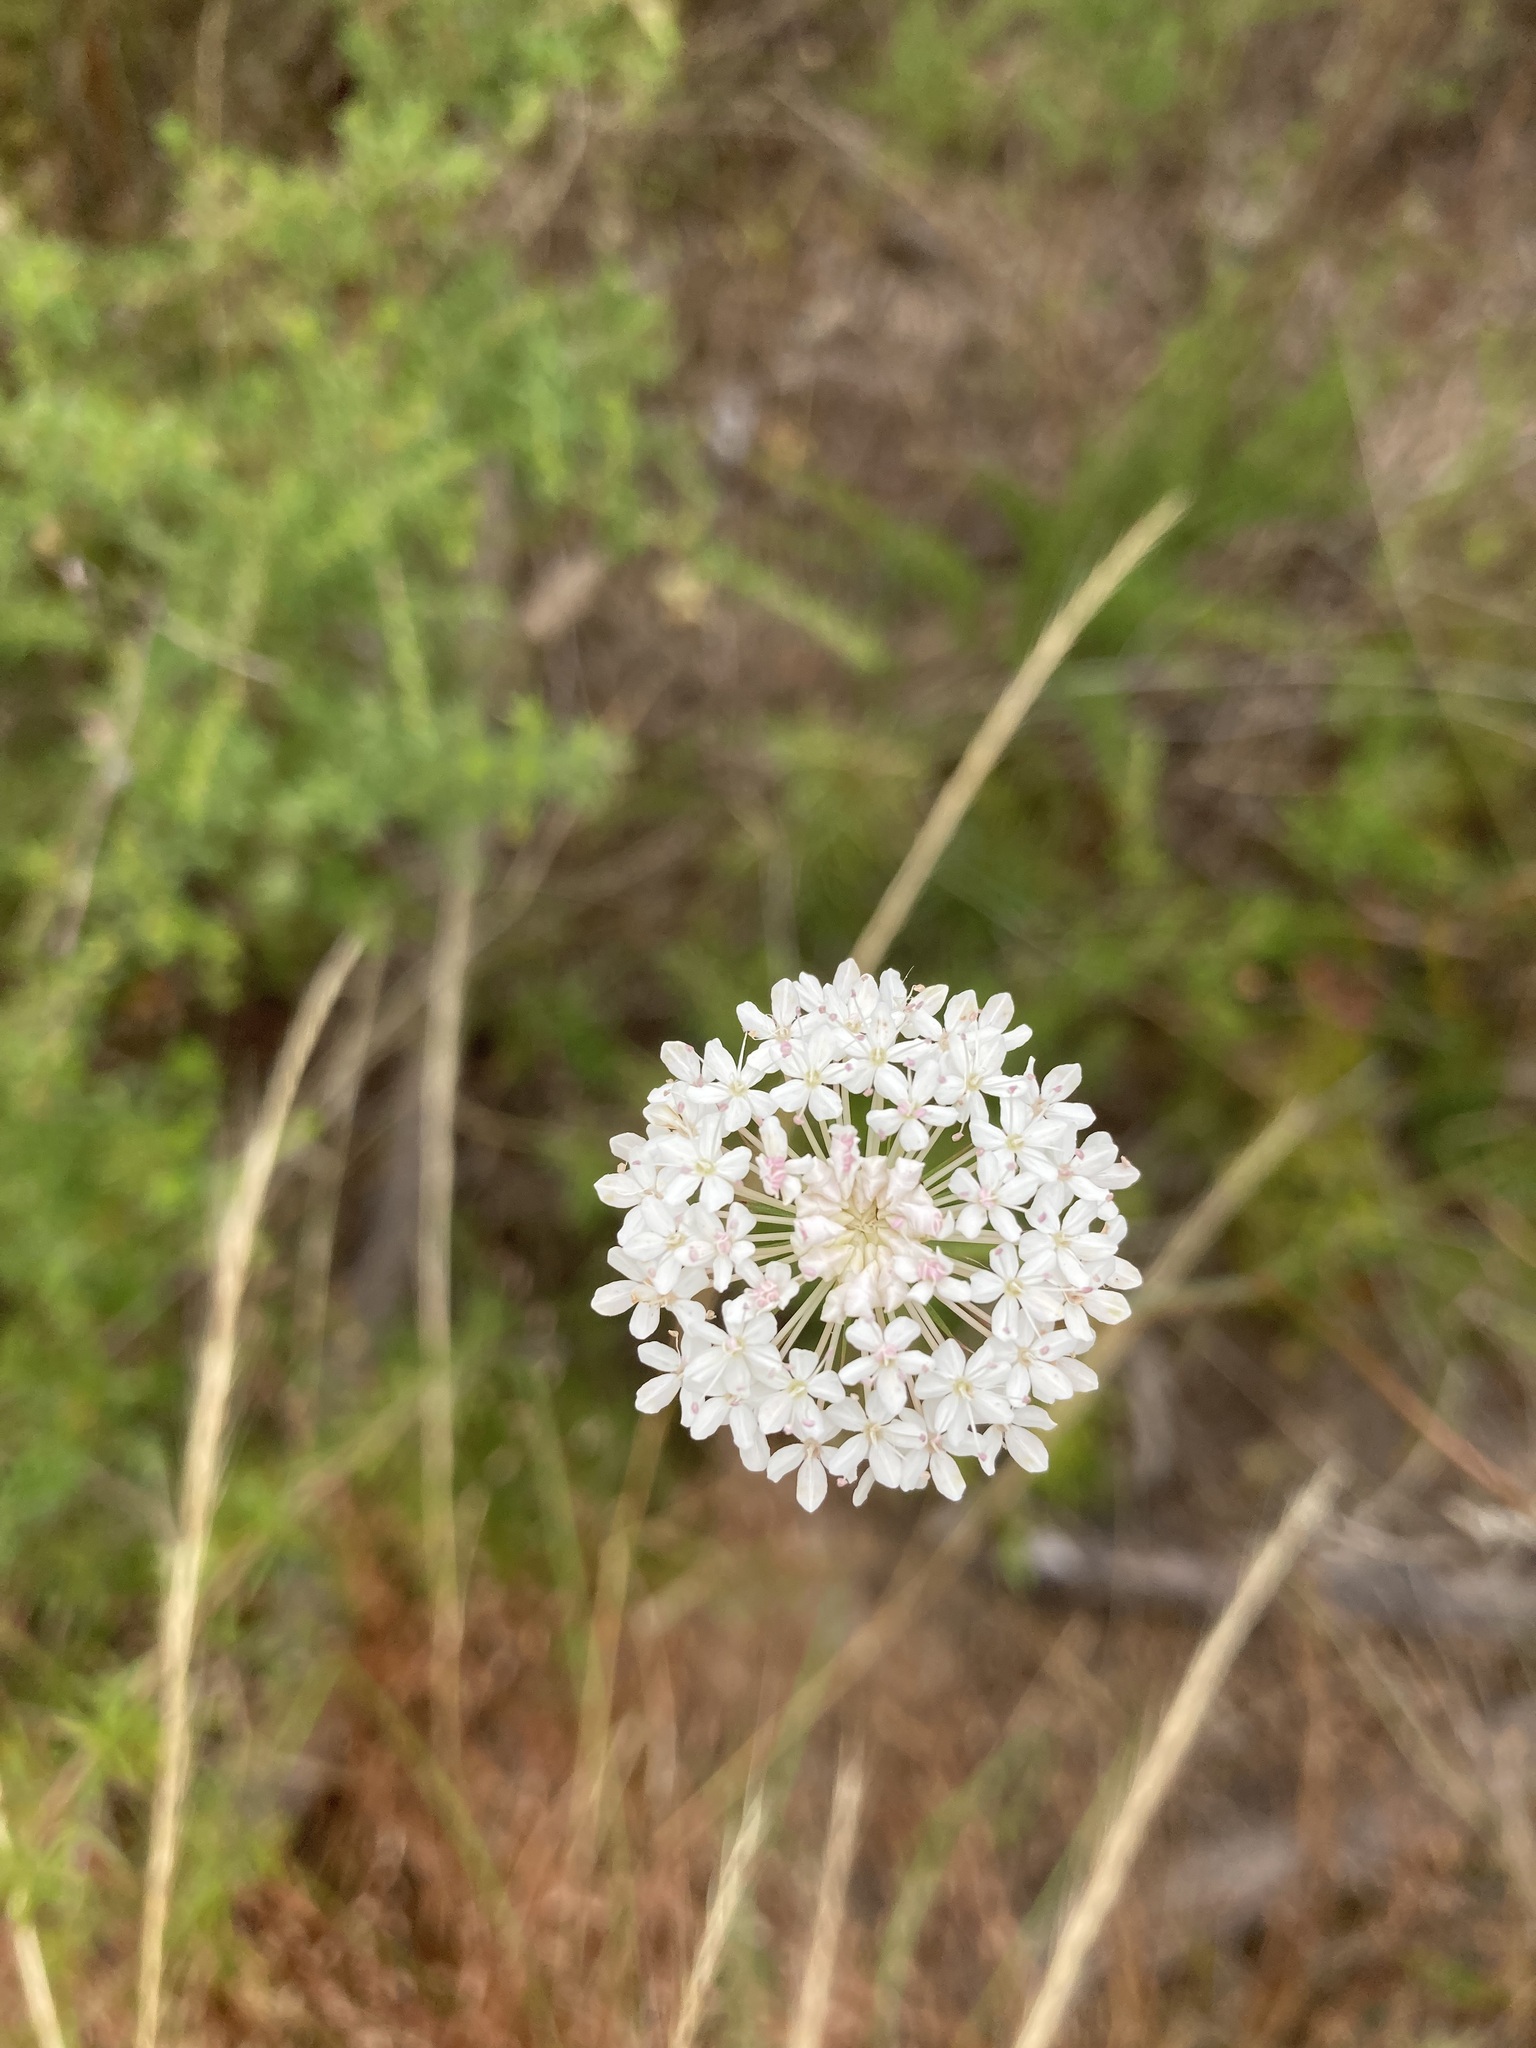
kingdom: Plantae
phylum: Tracheophyta
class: Magnoliopsida
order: Apiales
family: Araliaceae
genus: Trachymene
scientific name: Trachymene incisa
